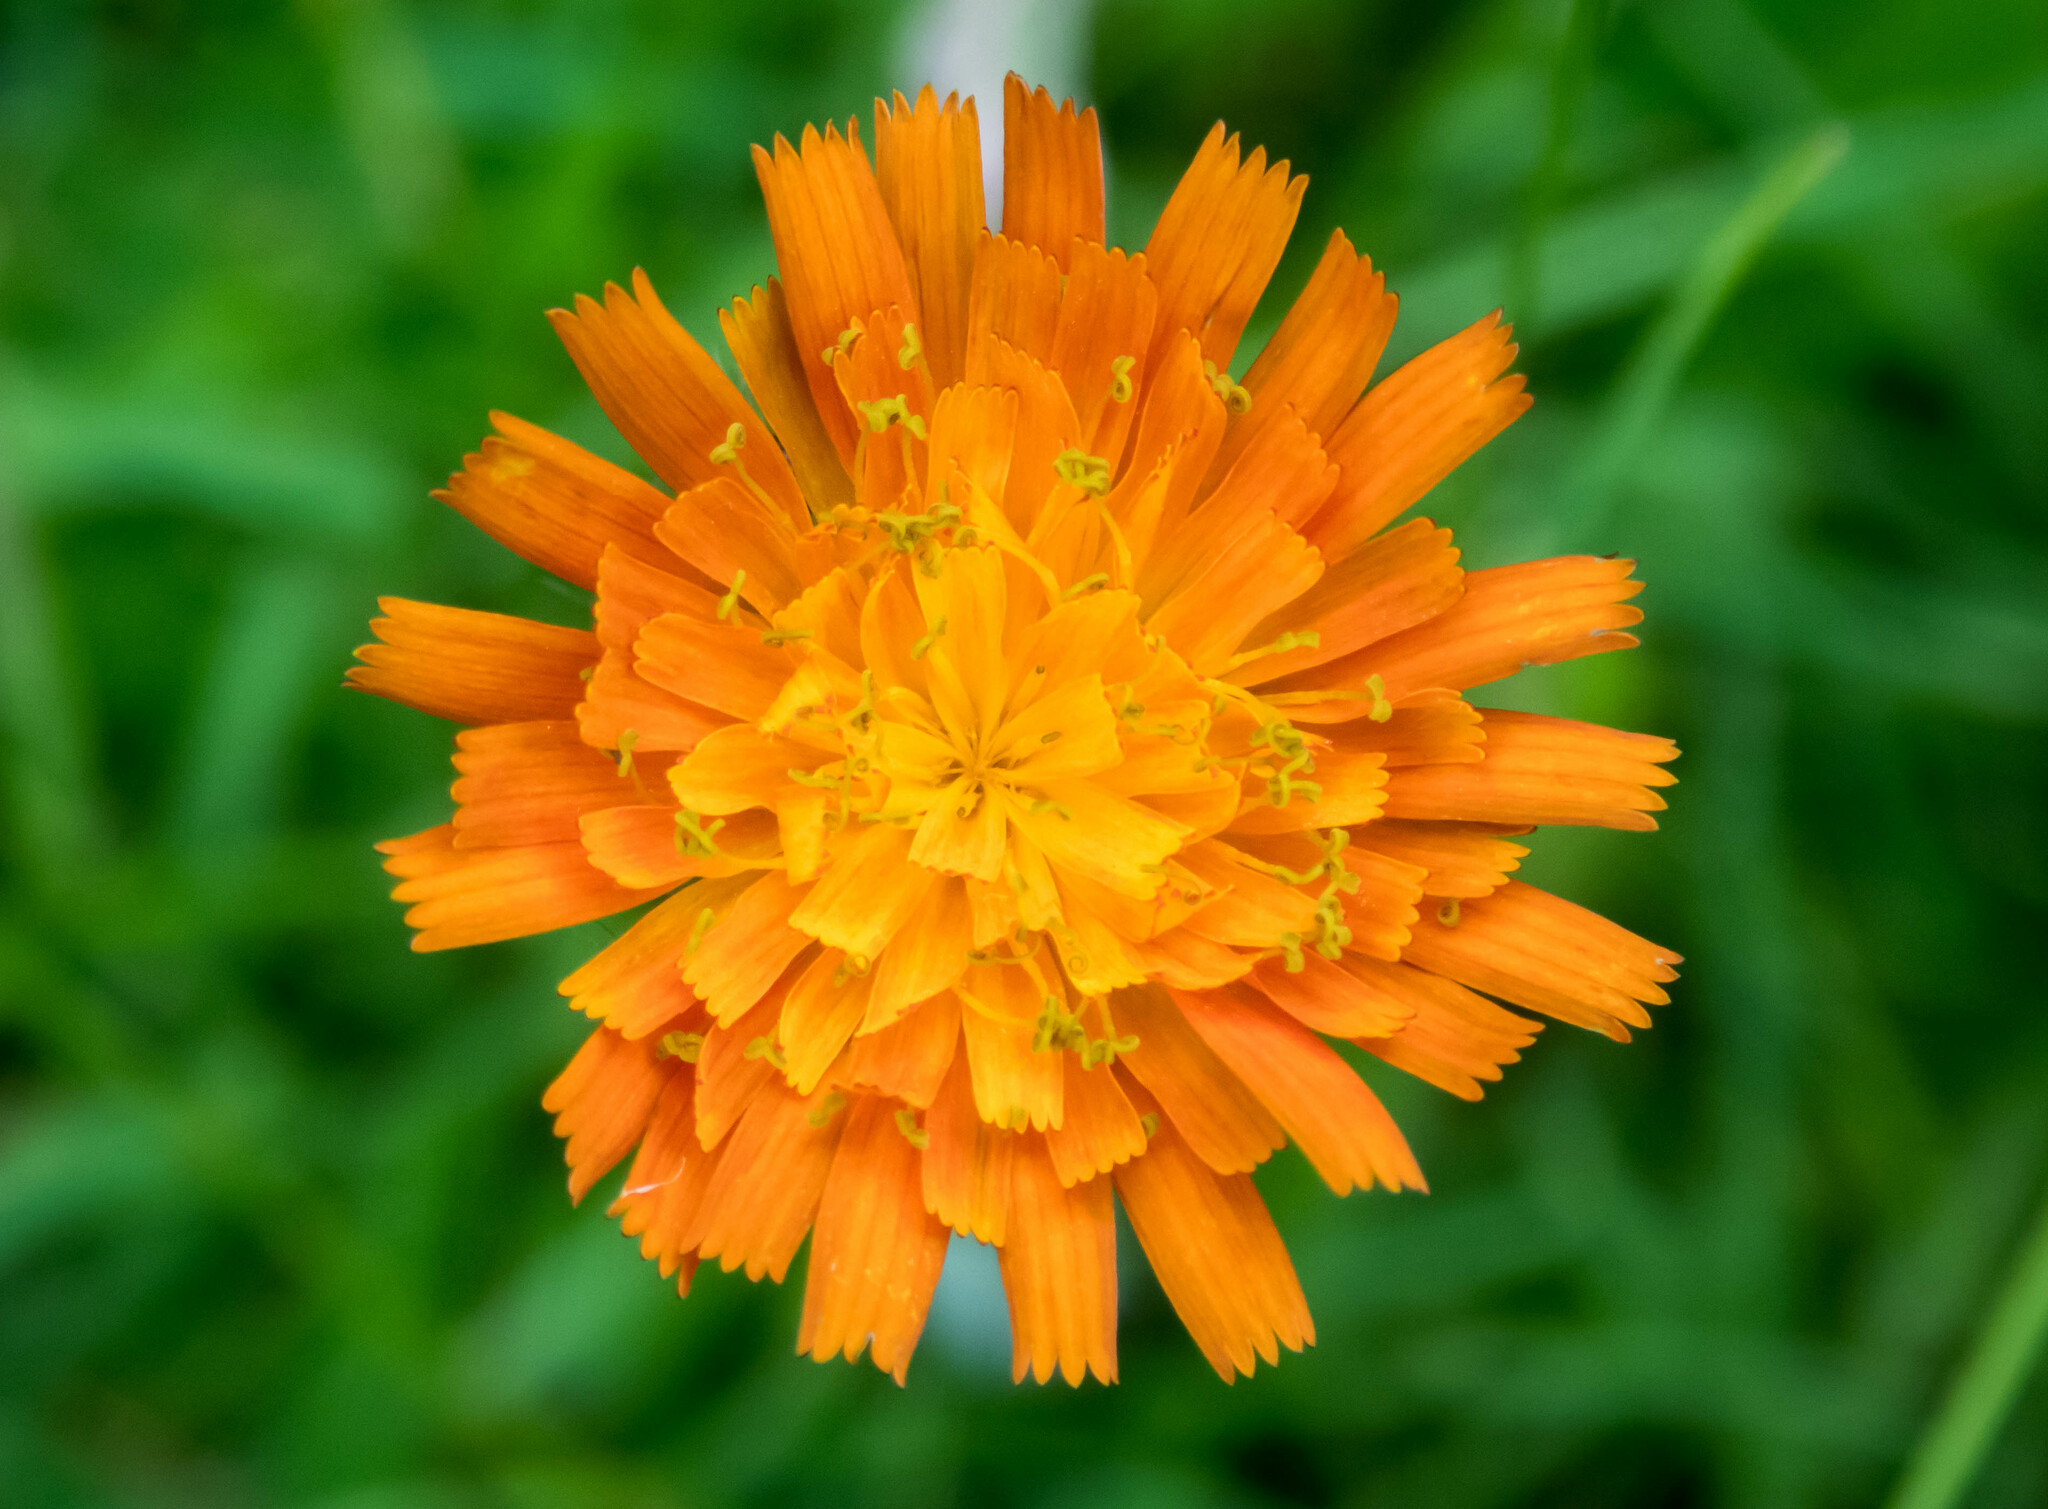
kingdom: Plantae
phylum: Tracheophyta
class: Magnoliopsida
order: Asterales
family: Asteraceae
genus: Pilosella
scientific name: Pilosella aurantiaca
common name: Fox-and-cubs
